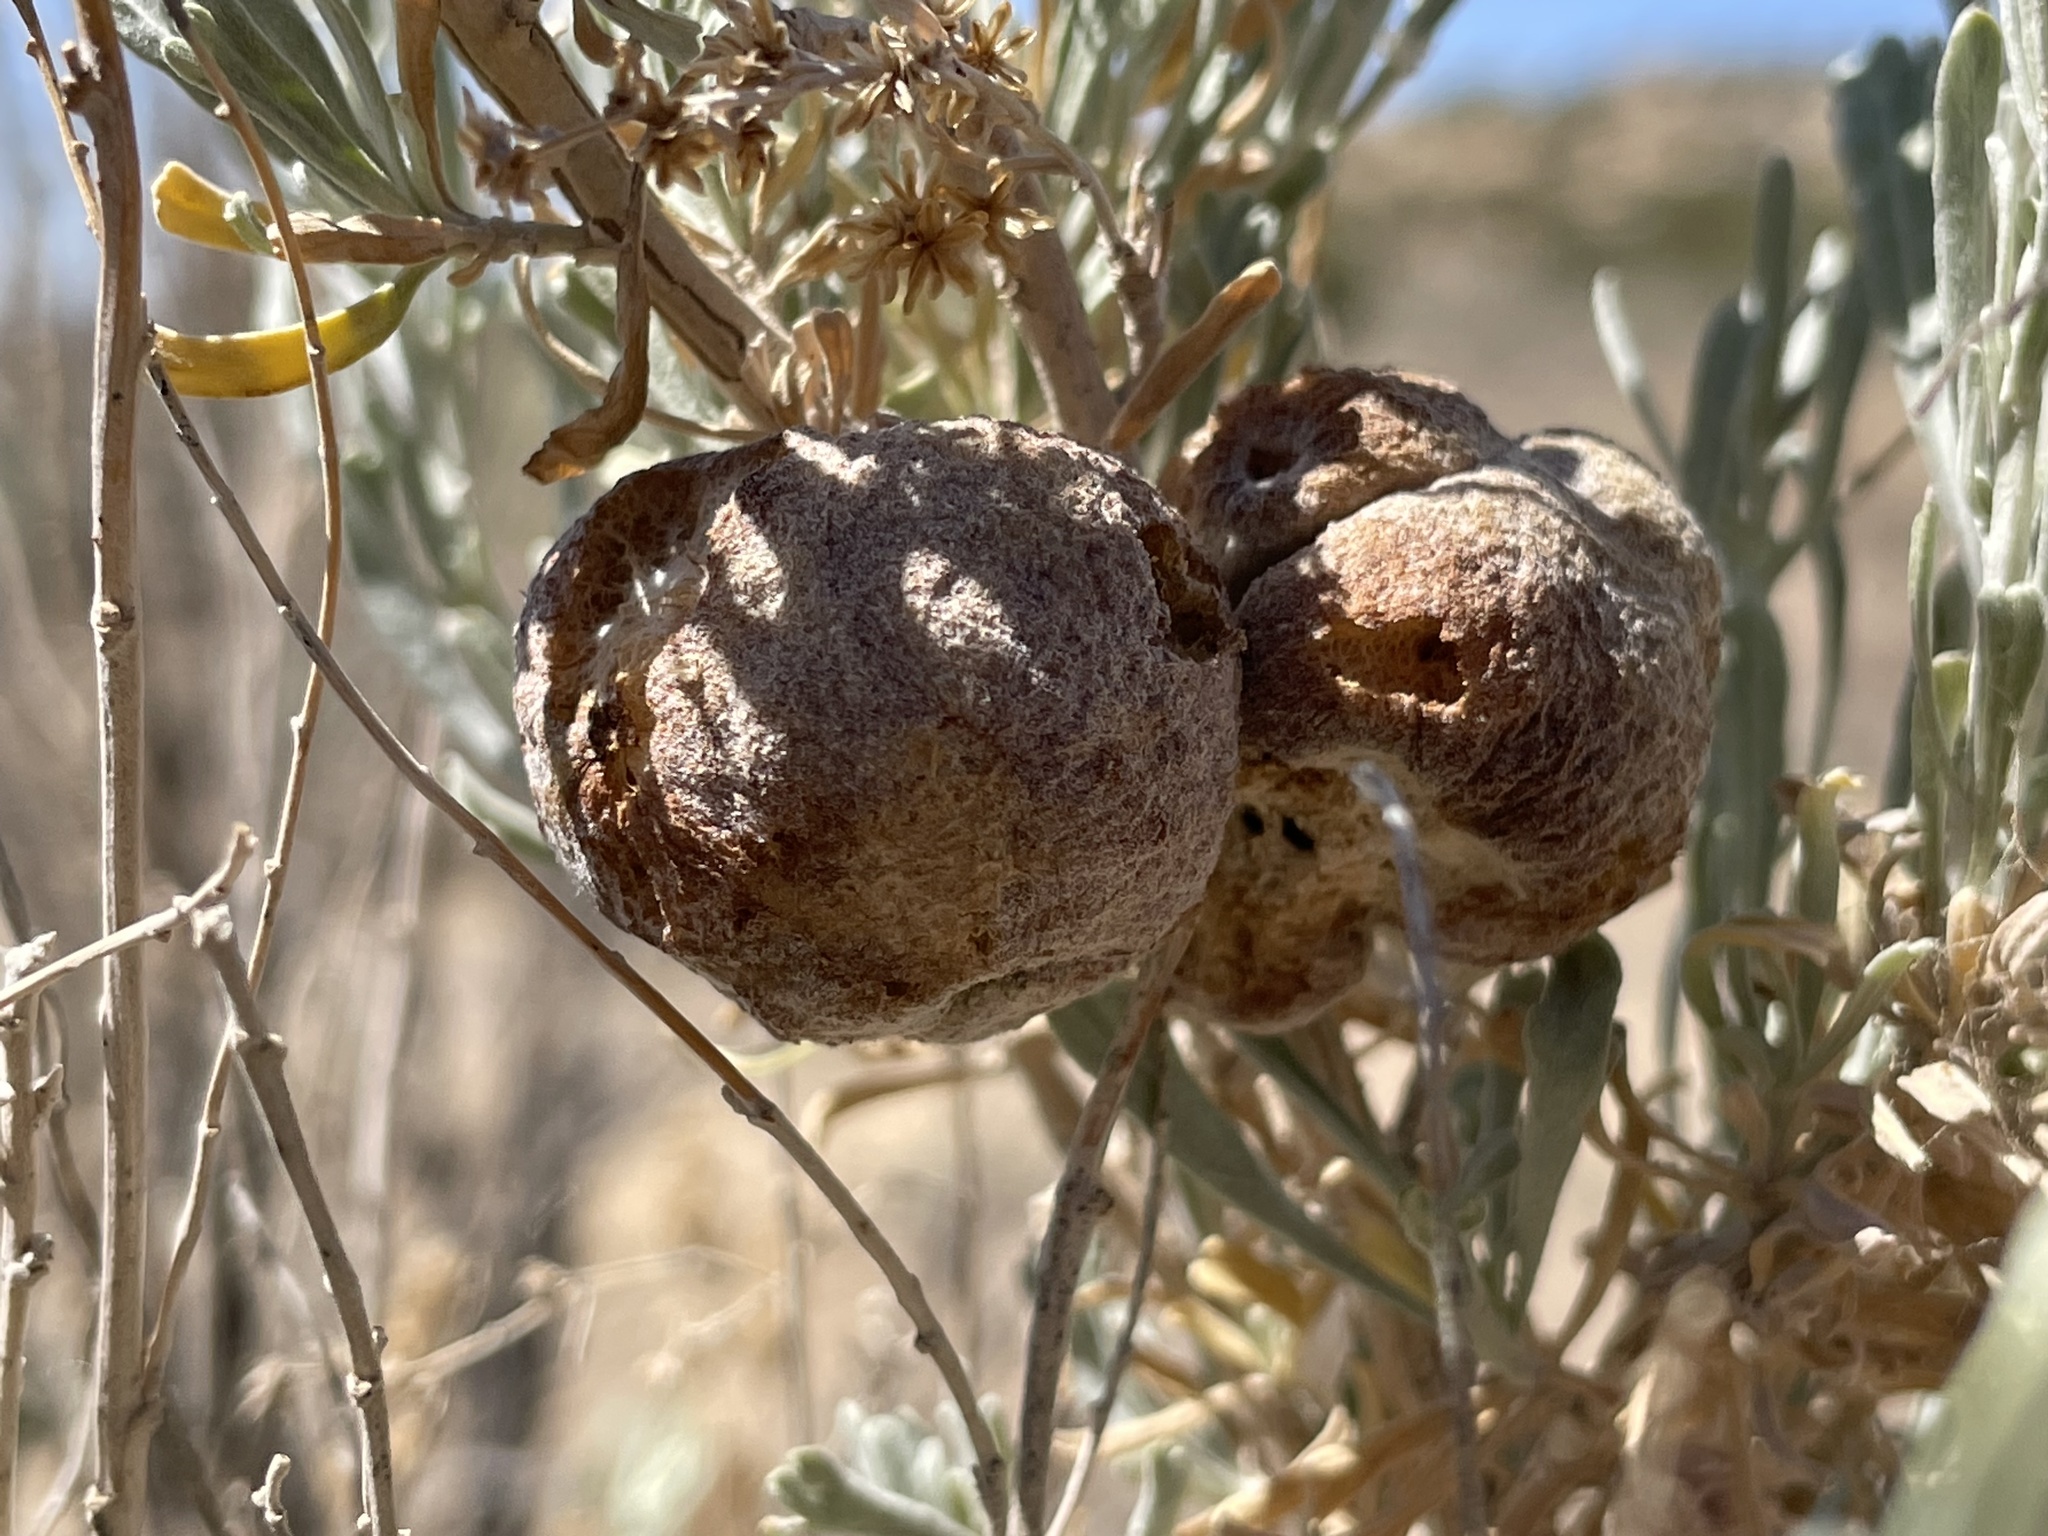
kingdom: Animalia
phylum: Arthropoda
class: Insecta
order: Diptera
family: Cecidomyiidae
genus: Rhopalomyia
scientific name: Rhopalomyia pomum
